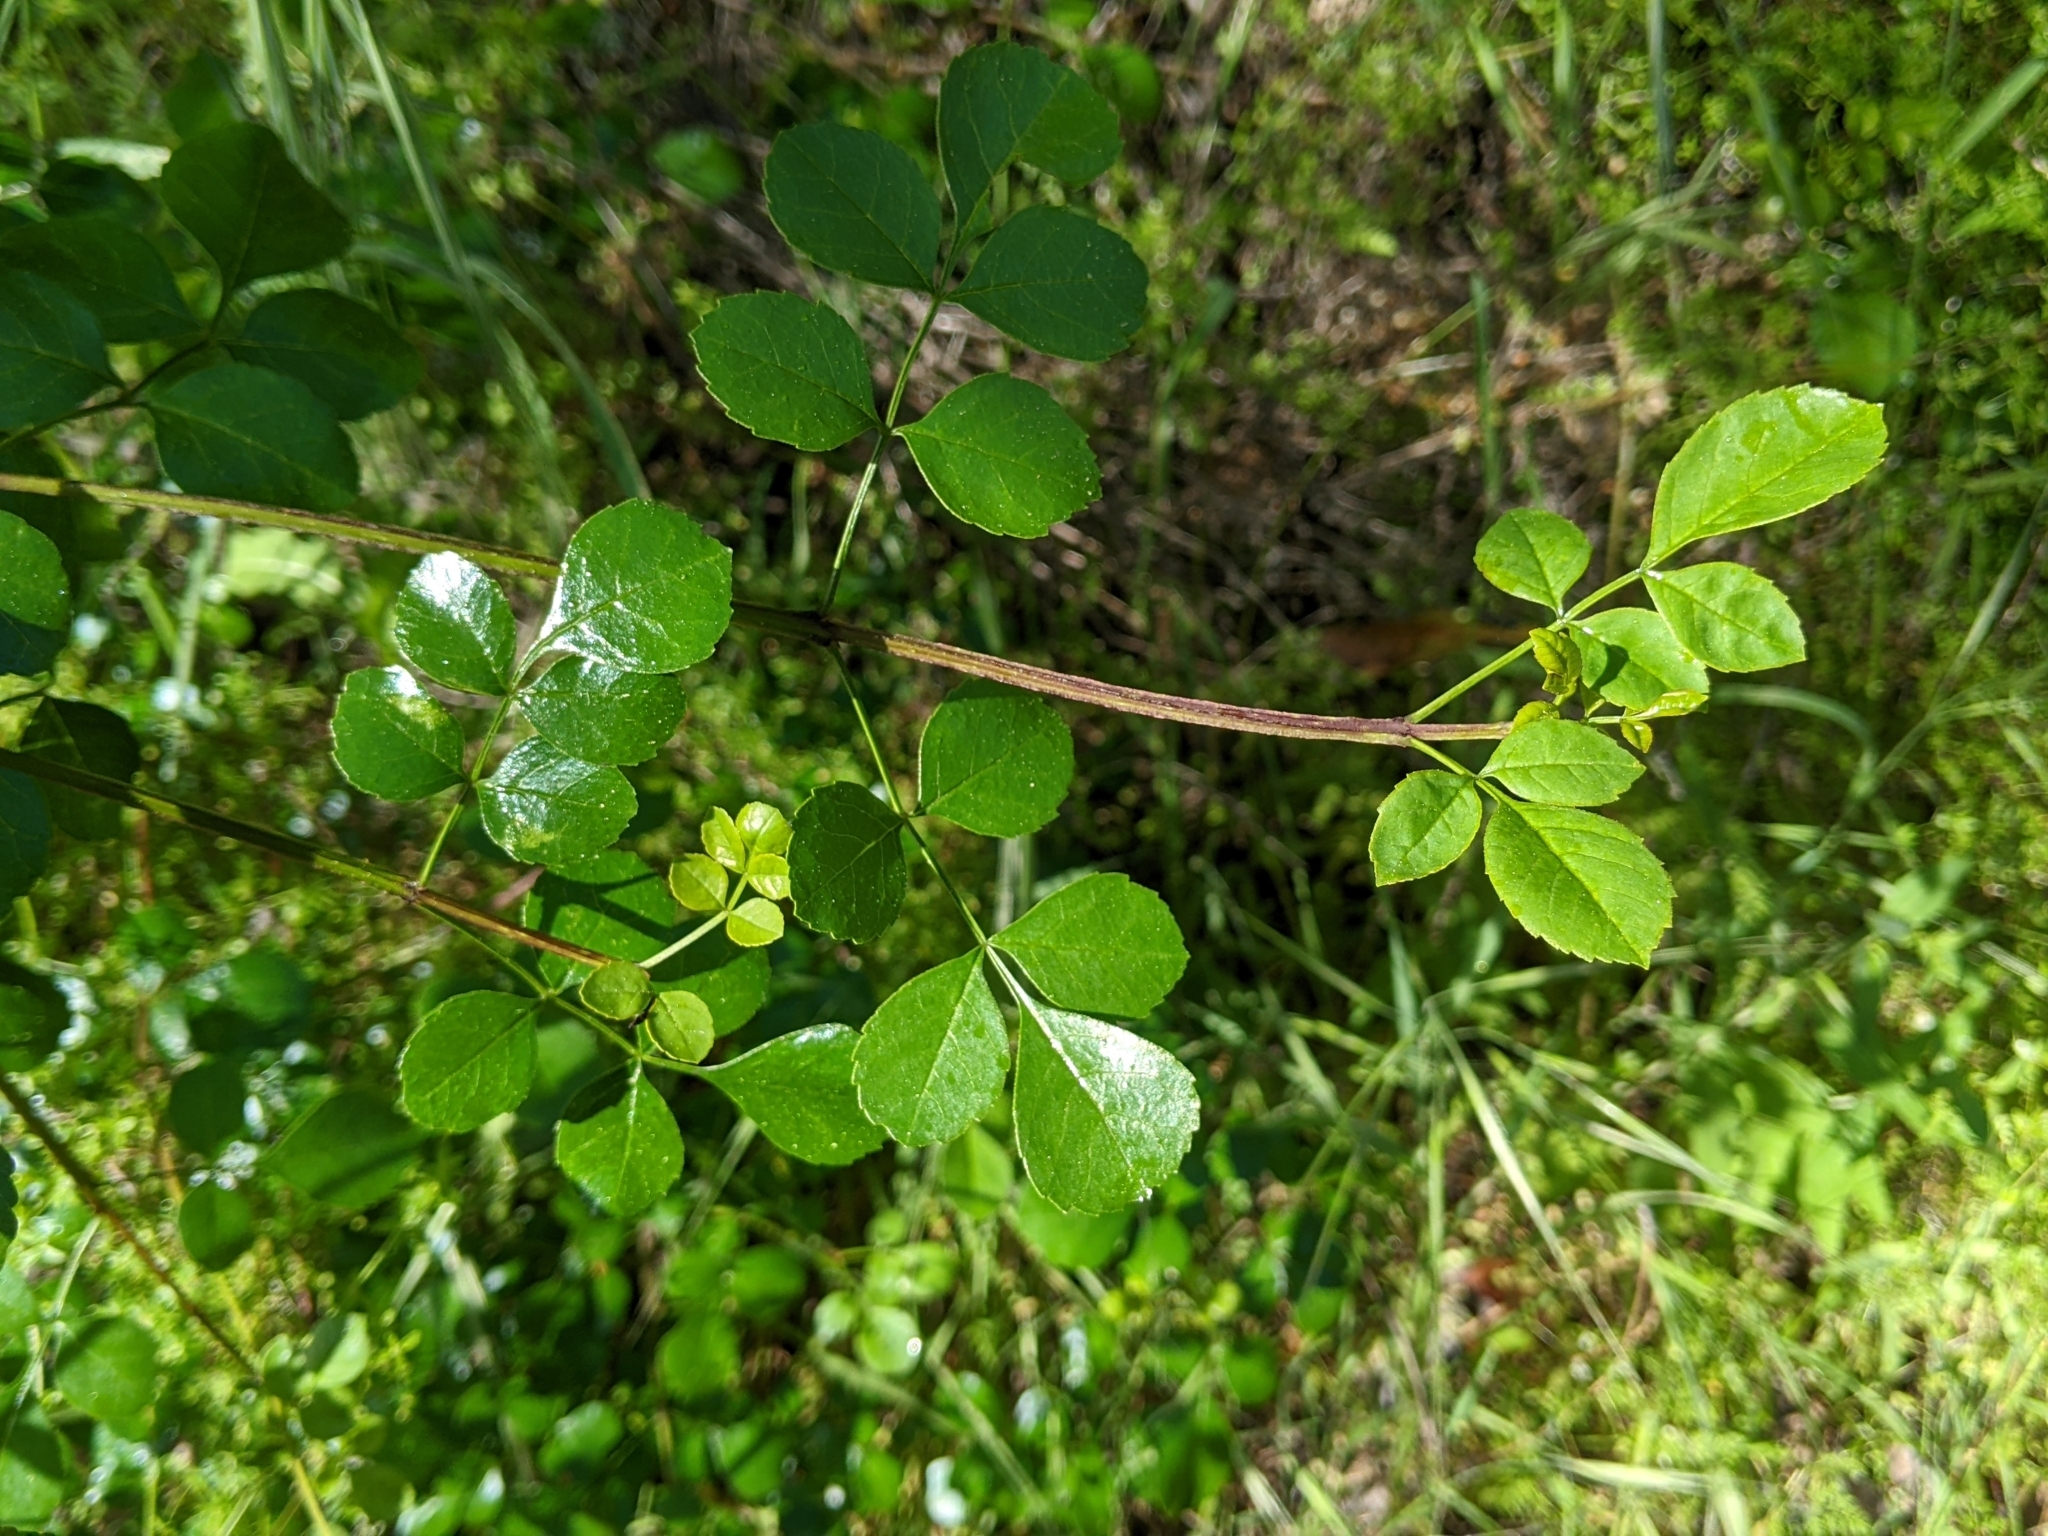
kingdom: Plantae
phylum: Tracheophyta
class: Magnoliopsida
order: Lamiales
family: Oleaceae
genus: Fraxinus
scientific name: Fraxinus dipetala
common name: California ash
